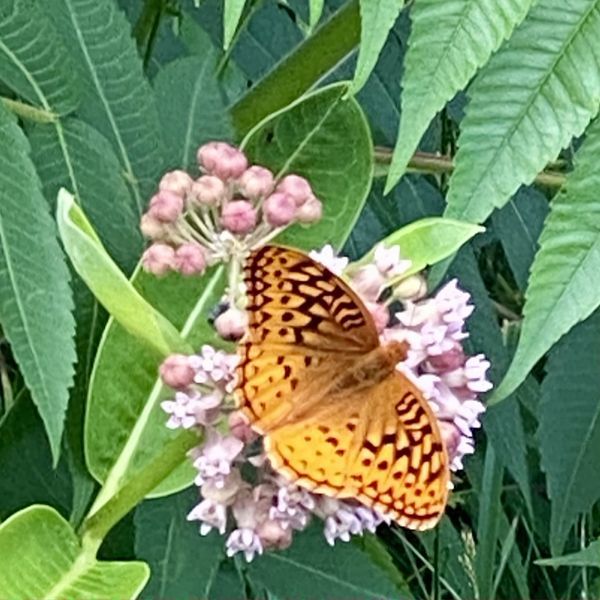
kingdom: Animalia
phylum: Arthropoda
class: Insecta
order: Lepidoptera
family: Nymphalidae
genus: Speyeria
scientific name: Speyeria cybele
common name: Great spangled fritillary
